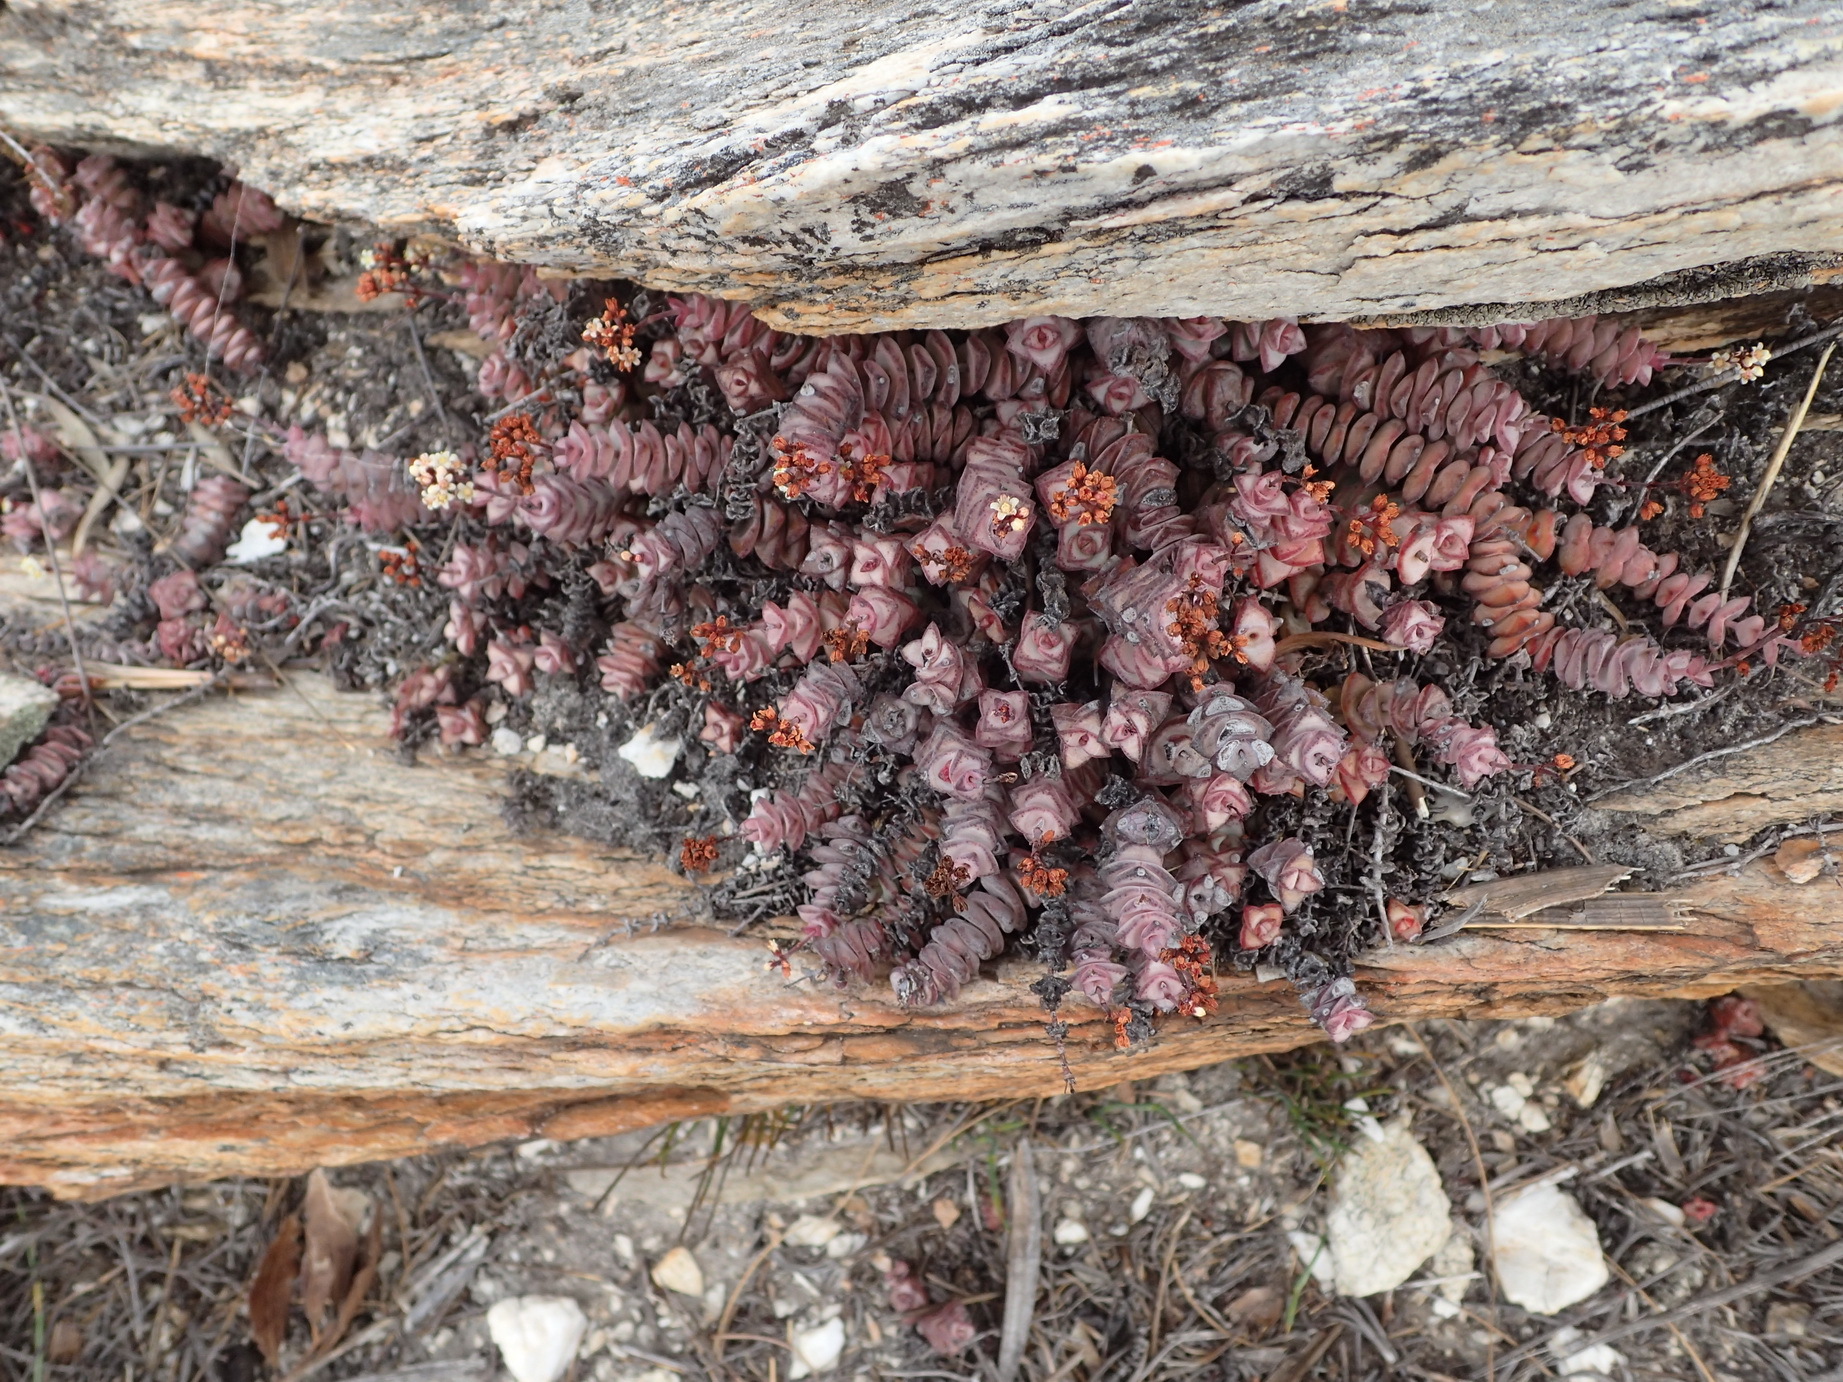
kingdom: Plantae
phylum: Tracheophyta
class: Magnoliopsida
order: Saxifragales
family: Crassulaceae
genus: Crassula
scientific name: Crassula perforata
